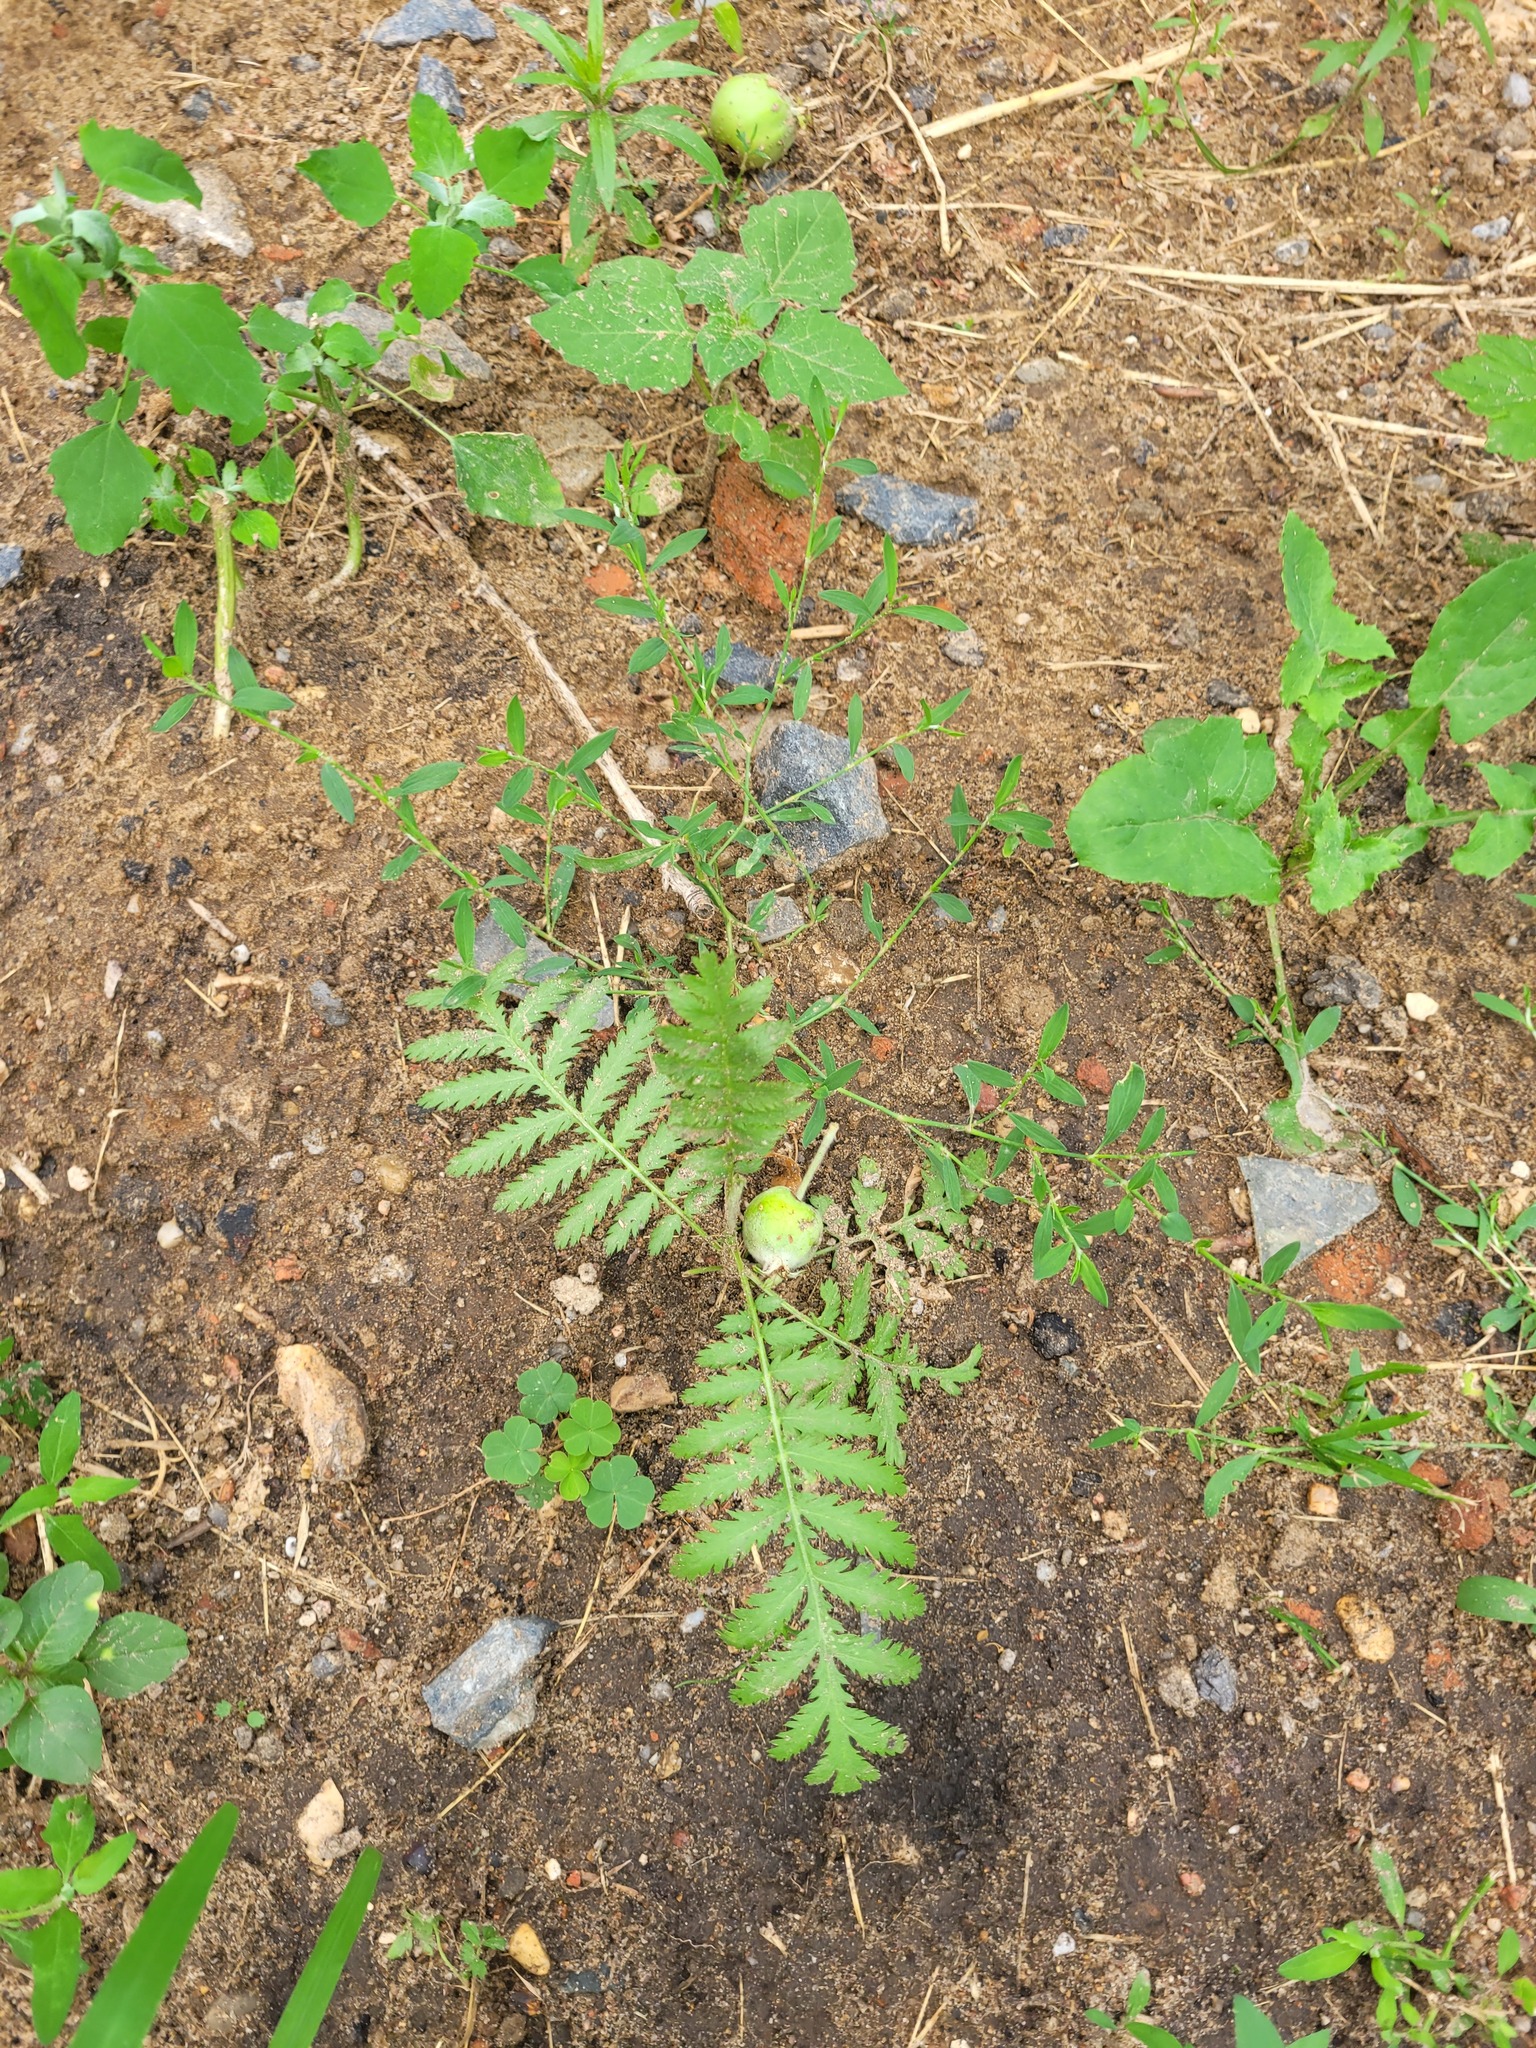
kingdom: Plantae
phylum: Tracheophyta
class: Magnoliopsida
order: Asterales
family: Asteraceae
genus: Tanacetum
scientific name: Tanacetum vulgare
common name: Common tansy
